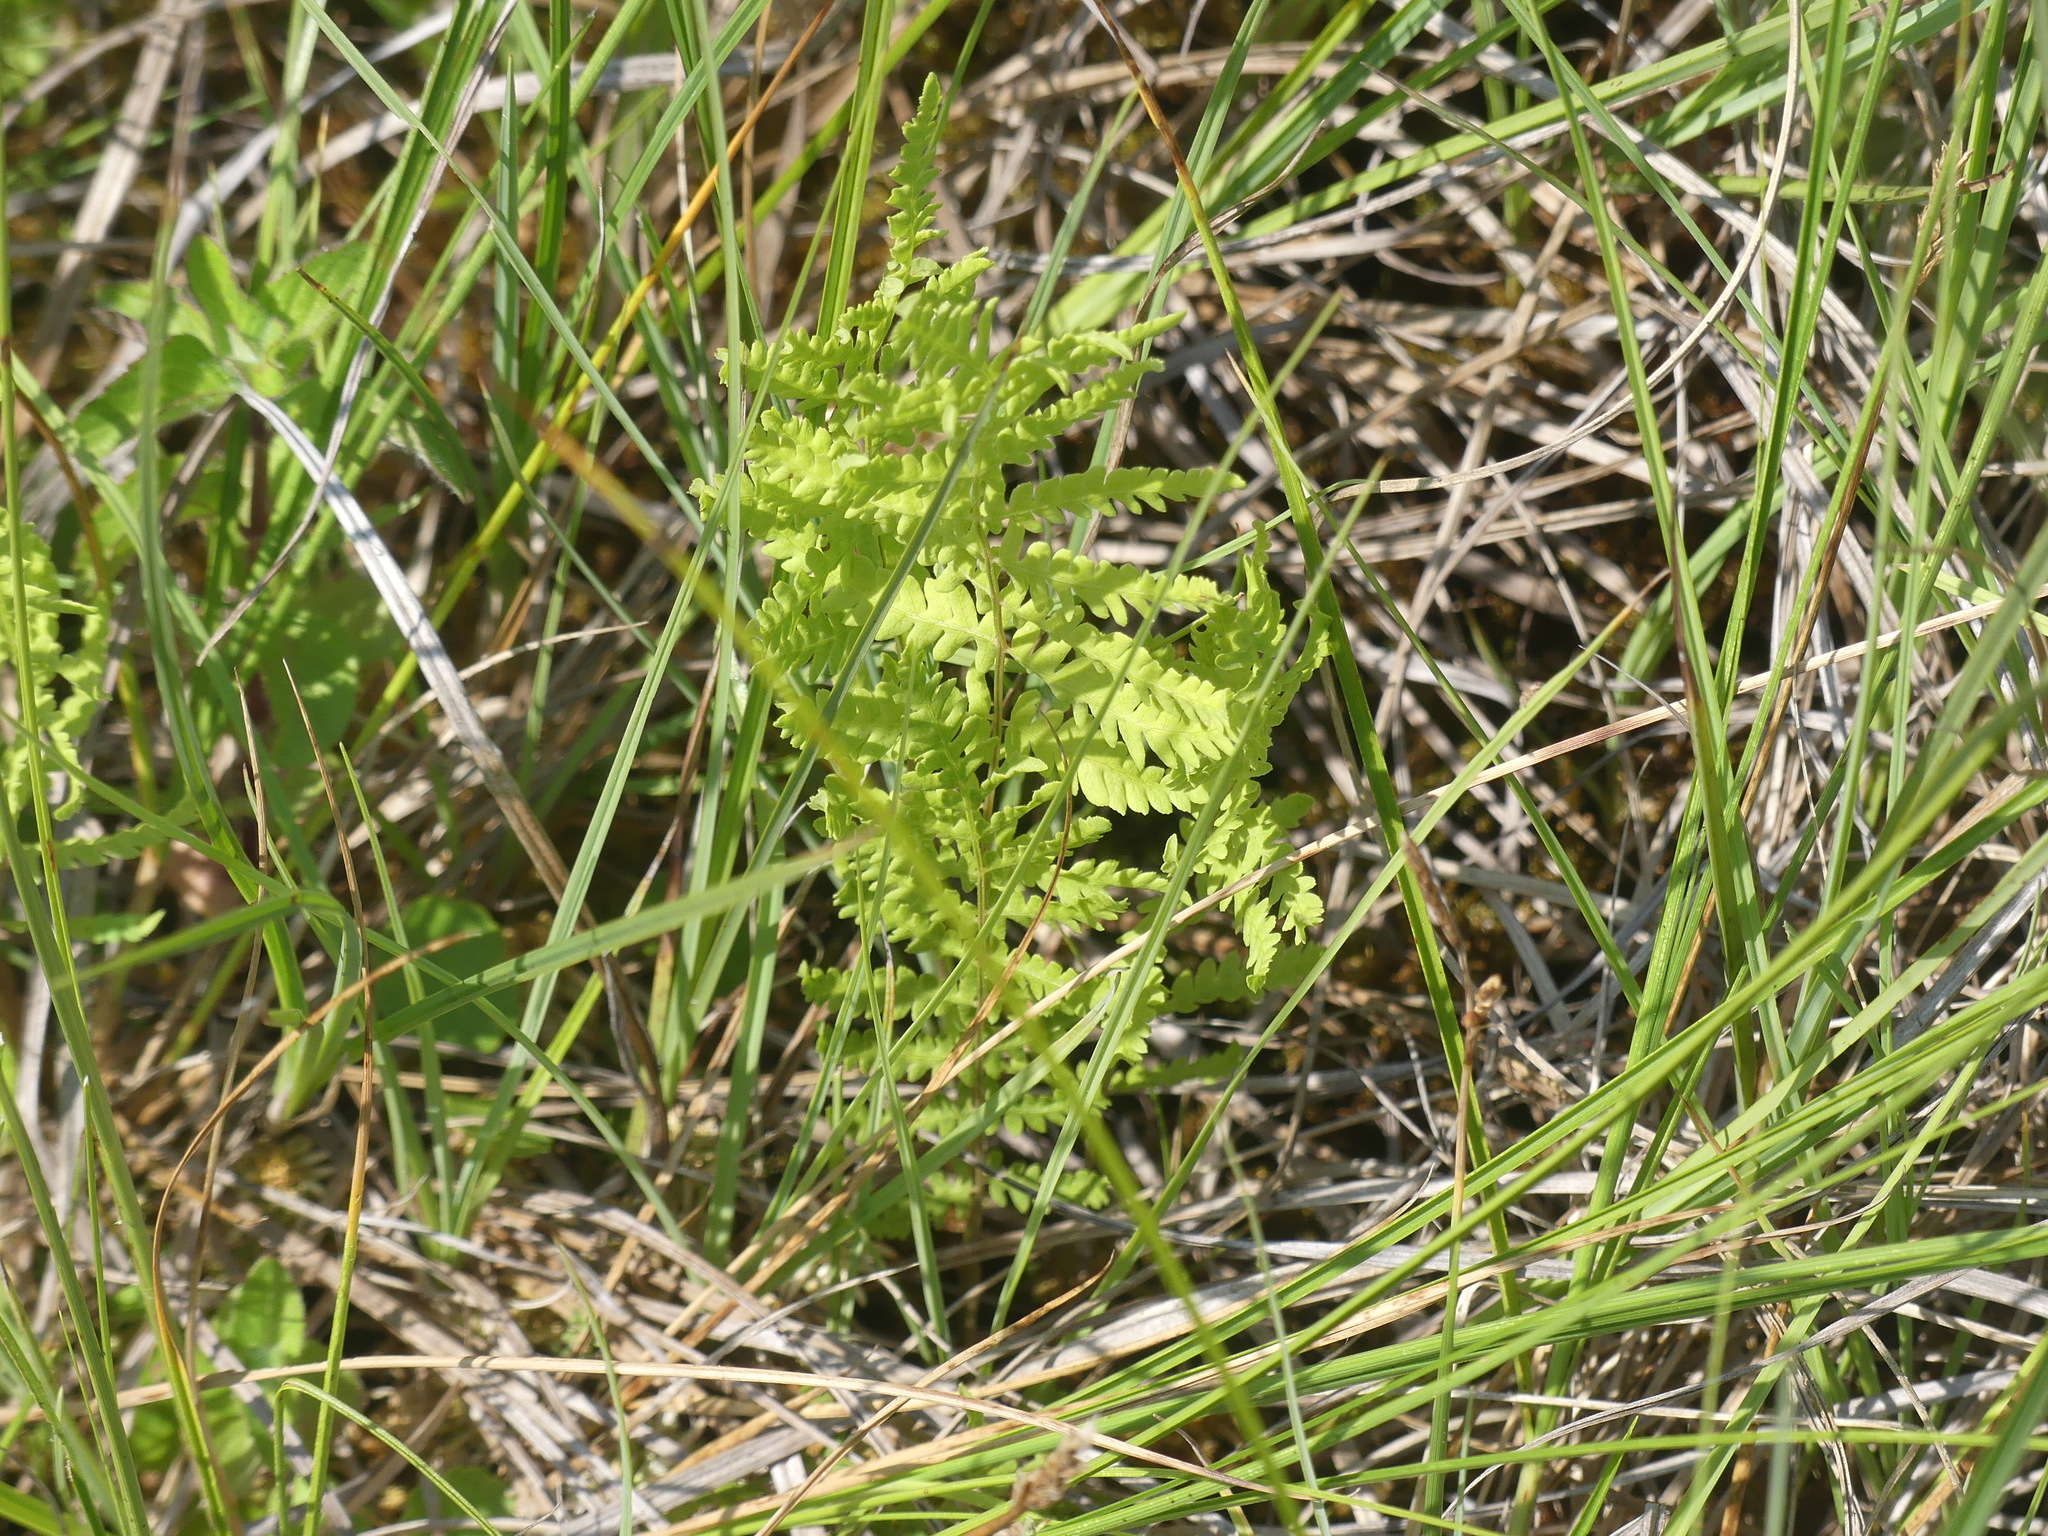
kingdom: Plantae
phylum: Tracheophyta
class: Polypodiopsida
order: Polypodiales
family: Thelypteridaceae
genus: Thelypteris
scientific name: Thelypteris palustris
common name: Marsh fern
